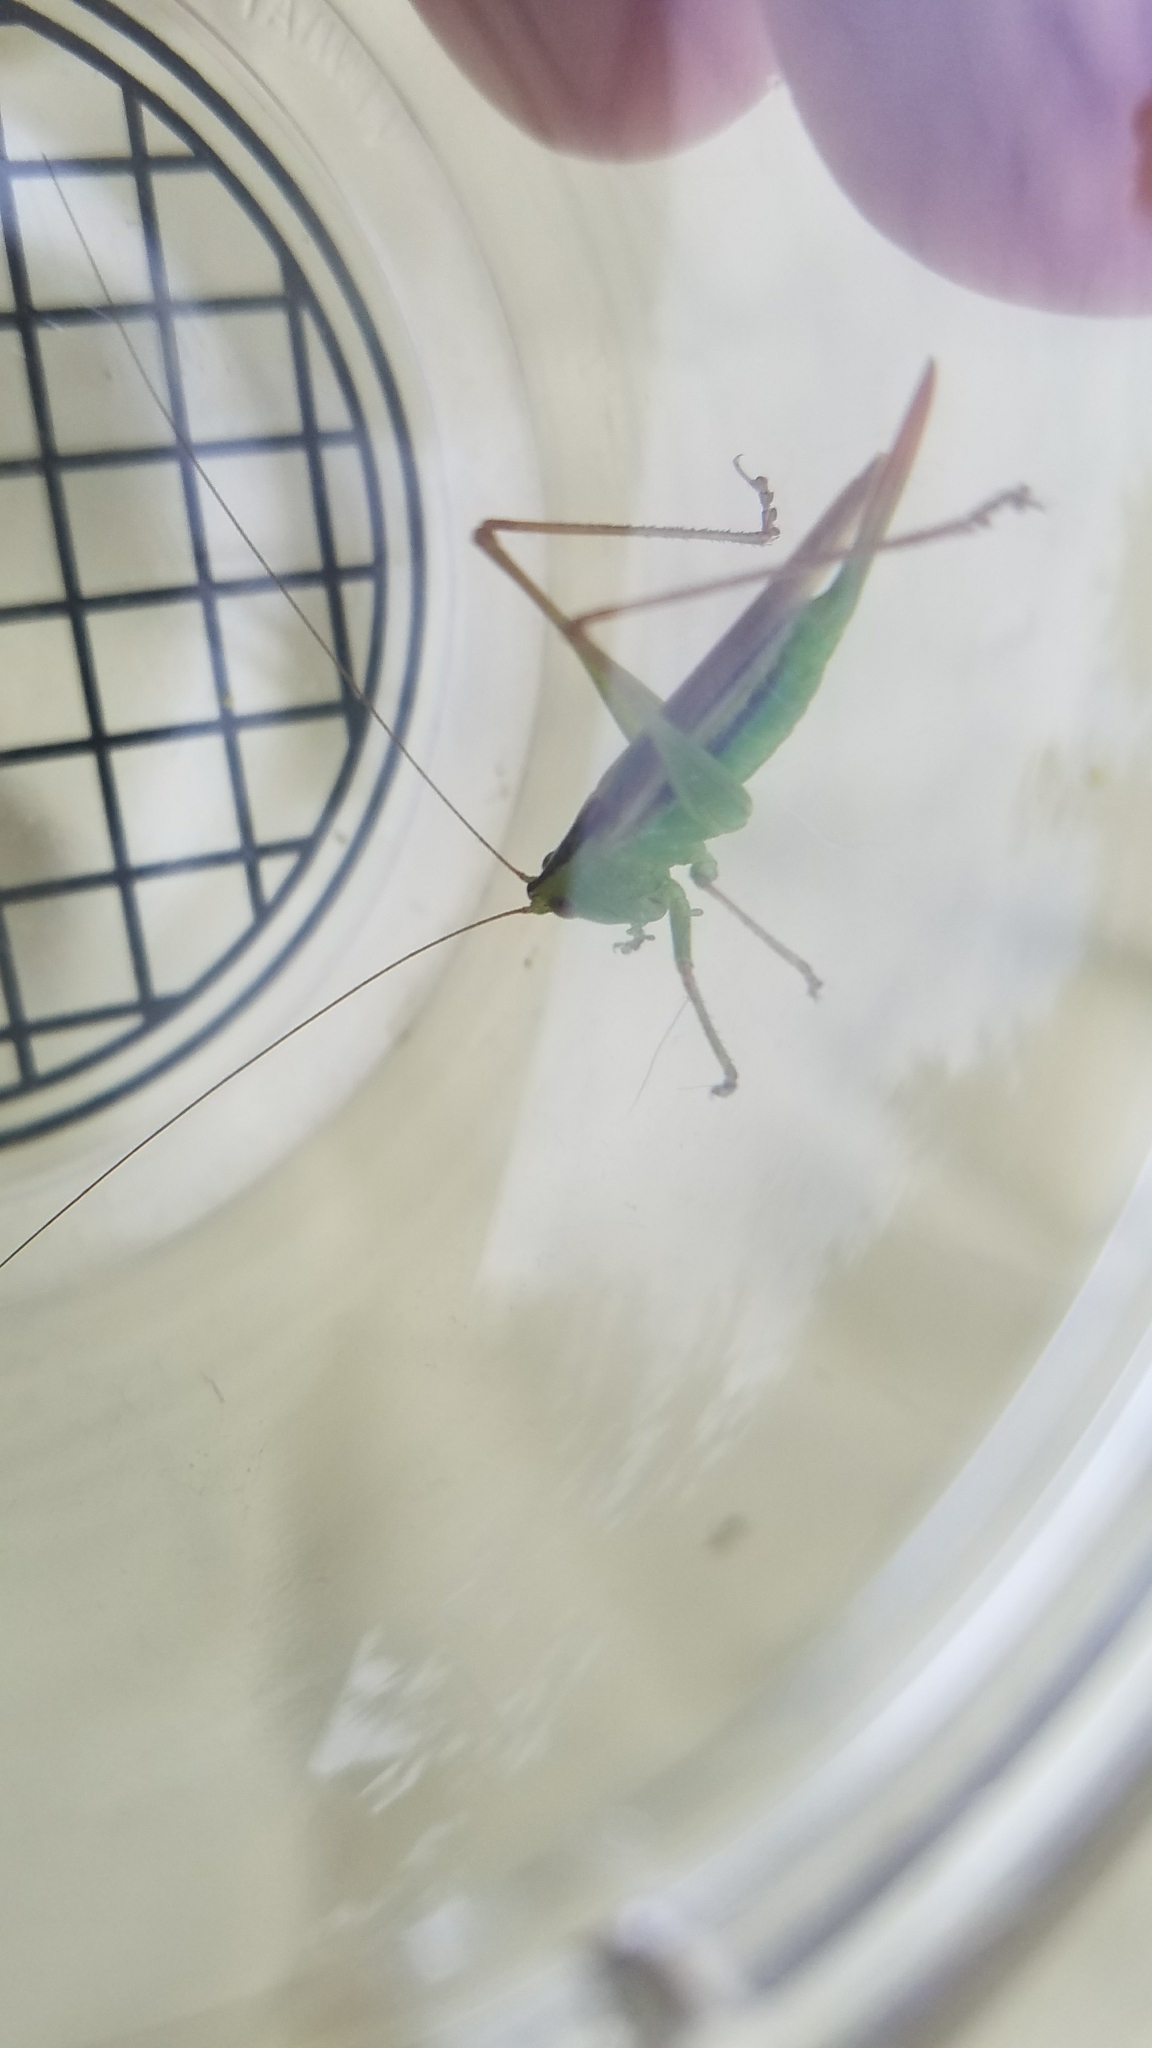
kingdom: Animalia
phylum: Arthropoda
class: Insecta
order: Orthoptera
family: Tettigoniidae
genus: Conocephalus
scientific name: Conocephalus fasciatus
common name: Slender meadow katydid
